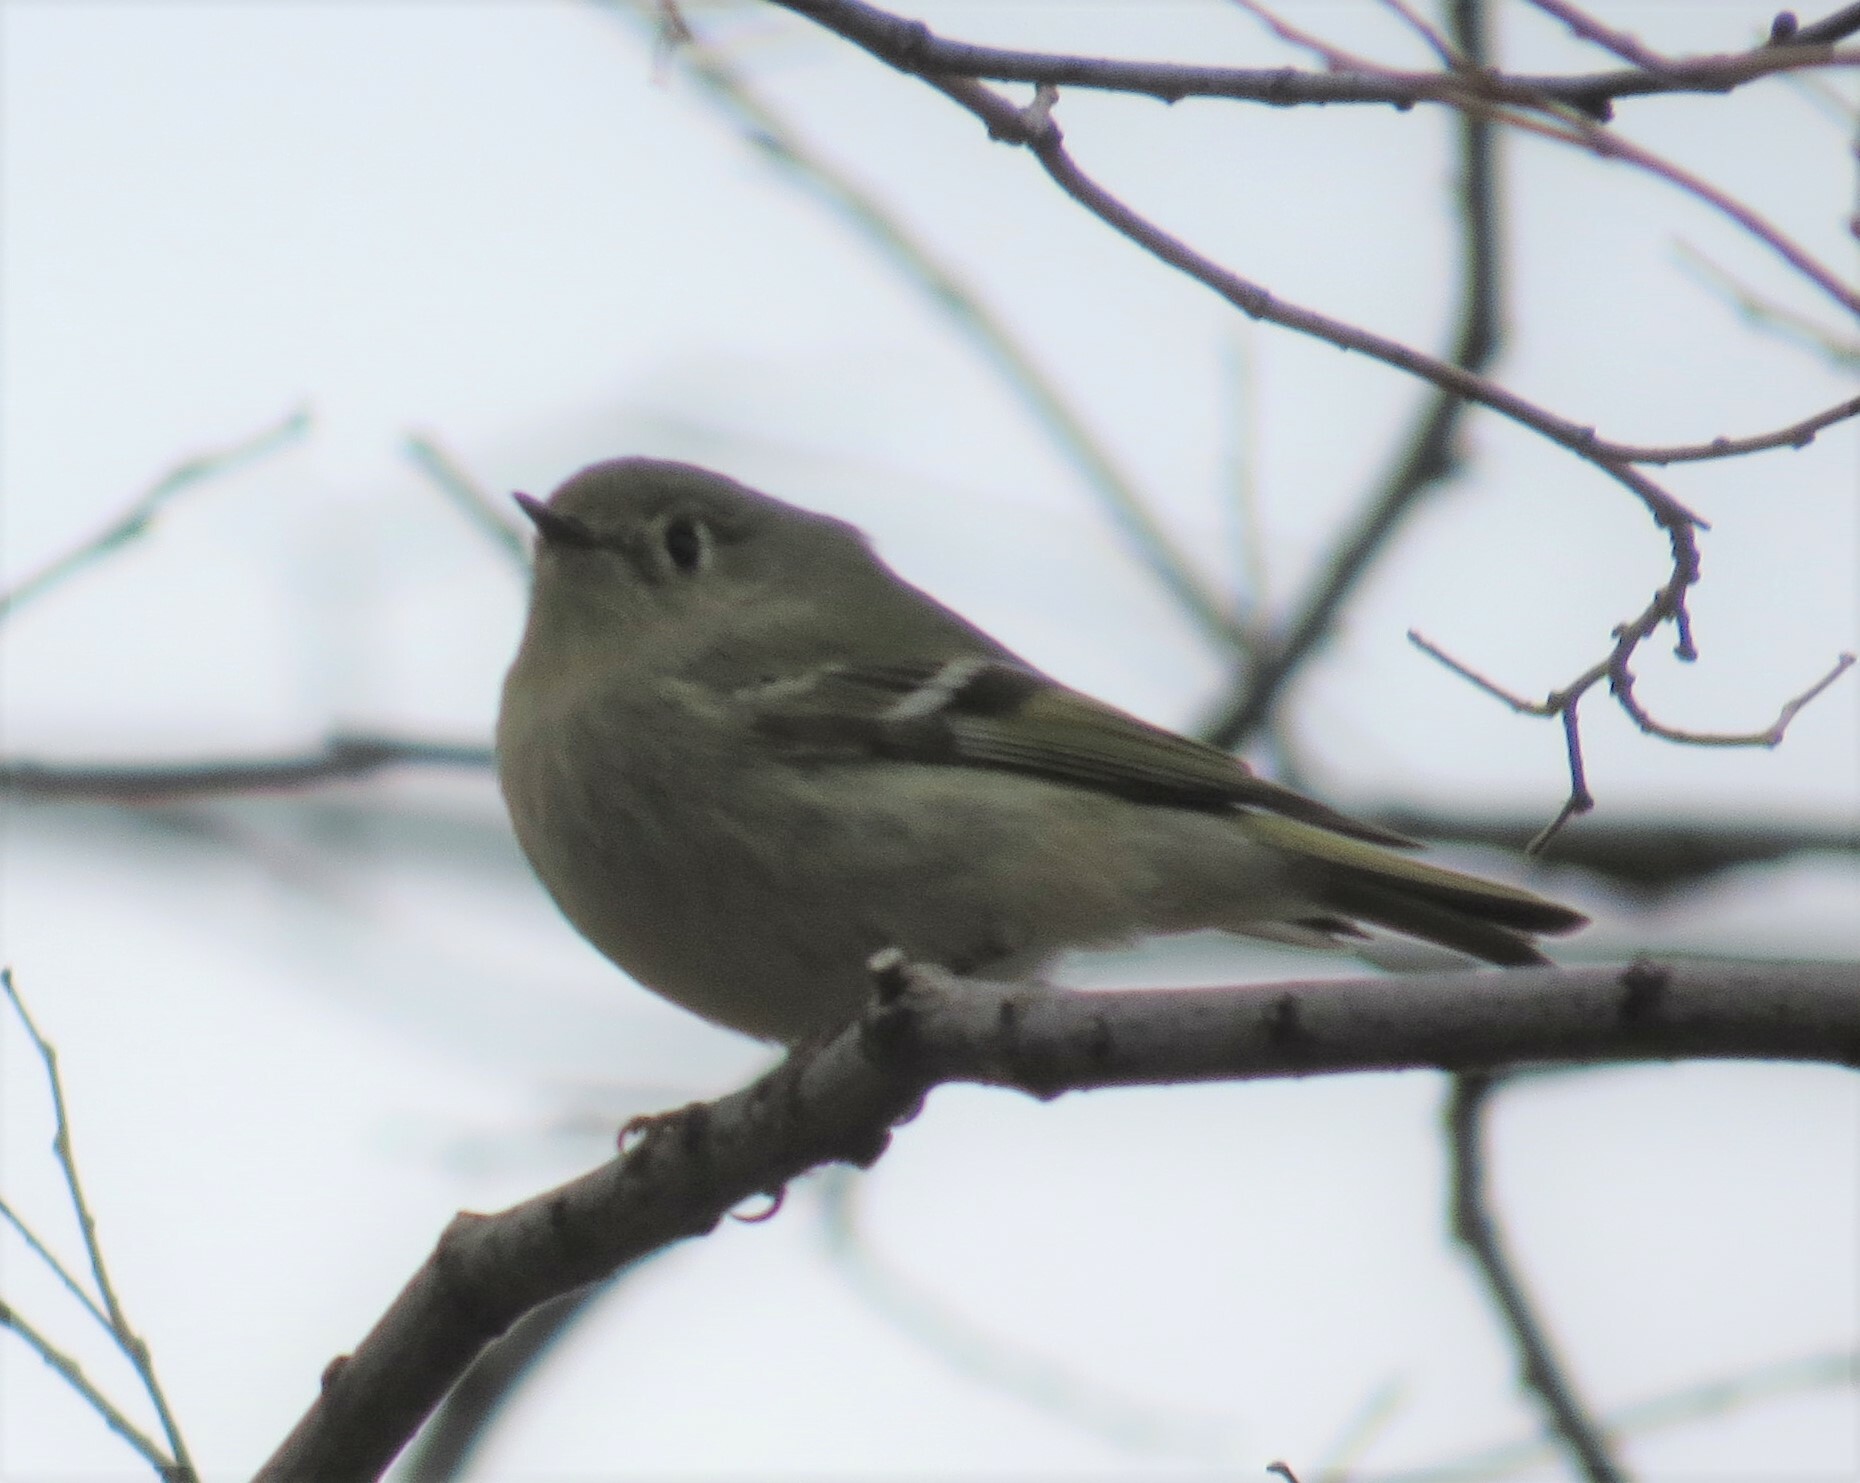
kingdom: Animalia
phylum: Chordata
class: Aves
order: Passeriformes
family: Regulidae
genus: Regulus
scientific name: Regulus calendula
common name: Ruby-crowned kinglet
